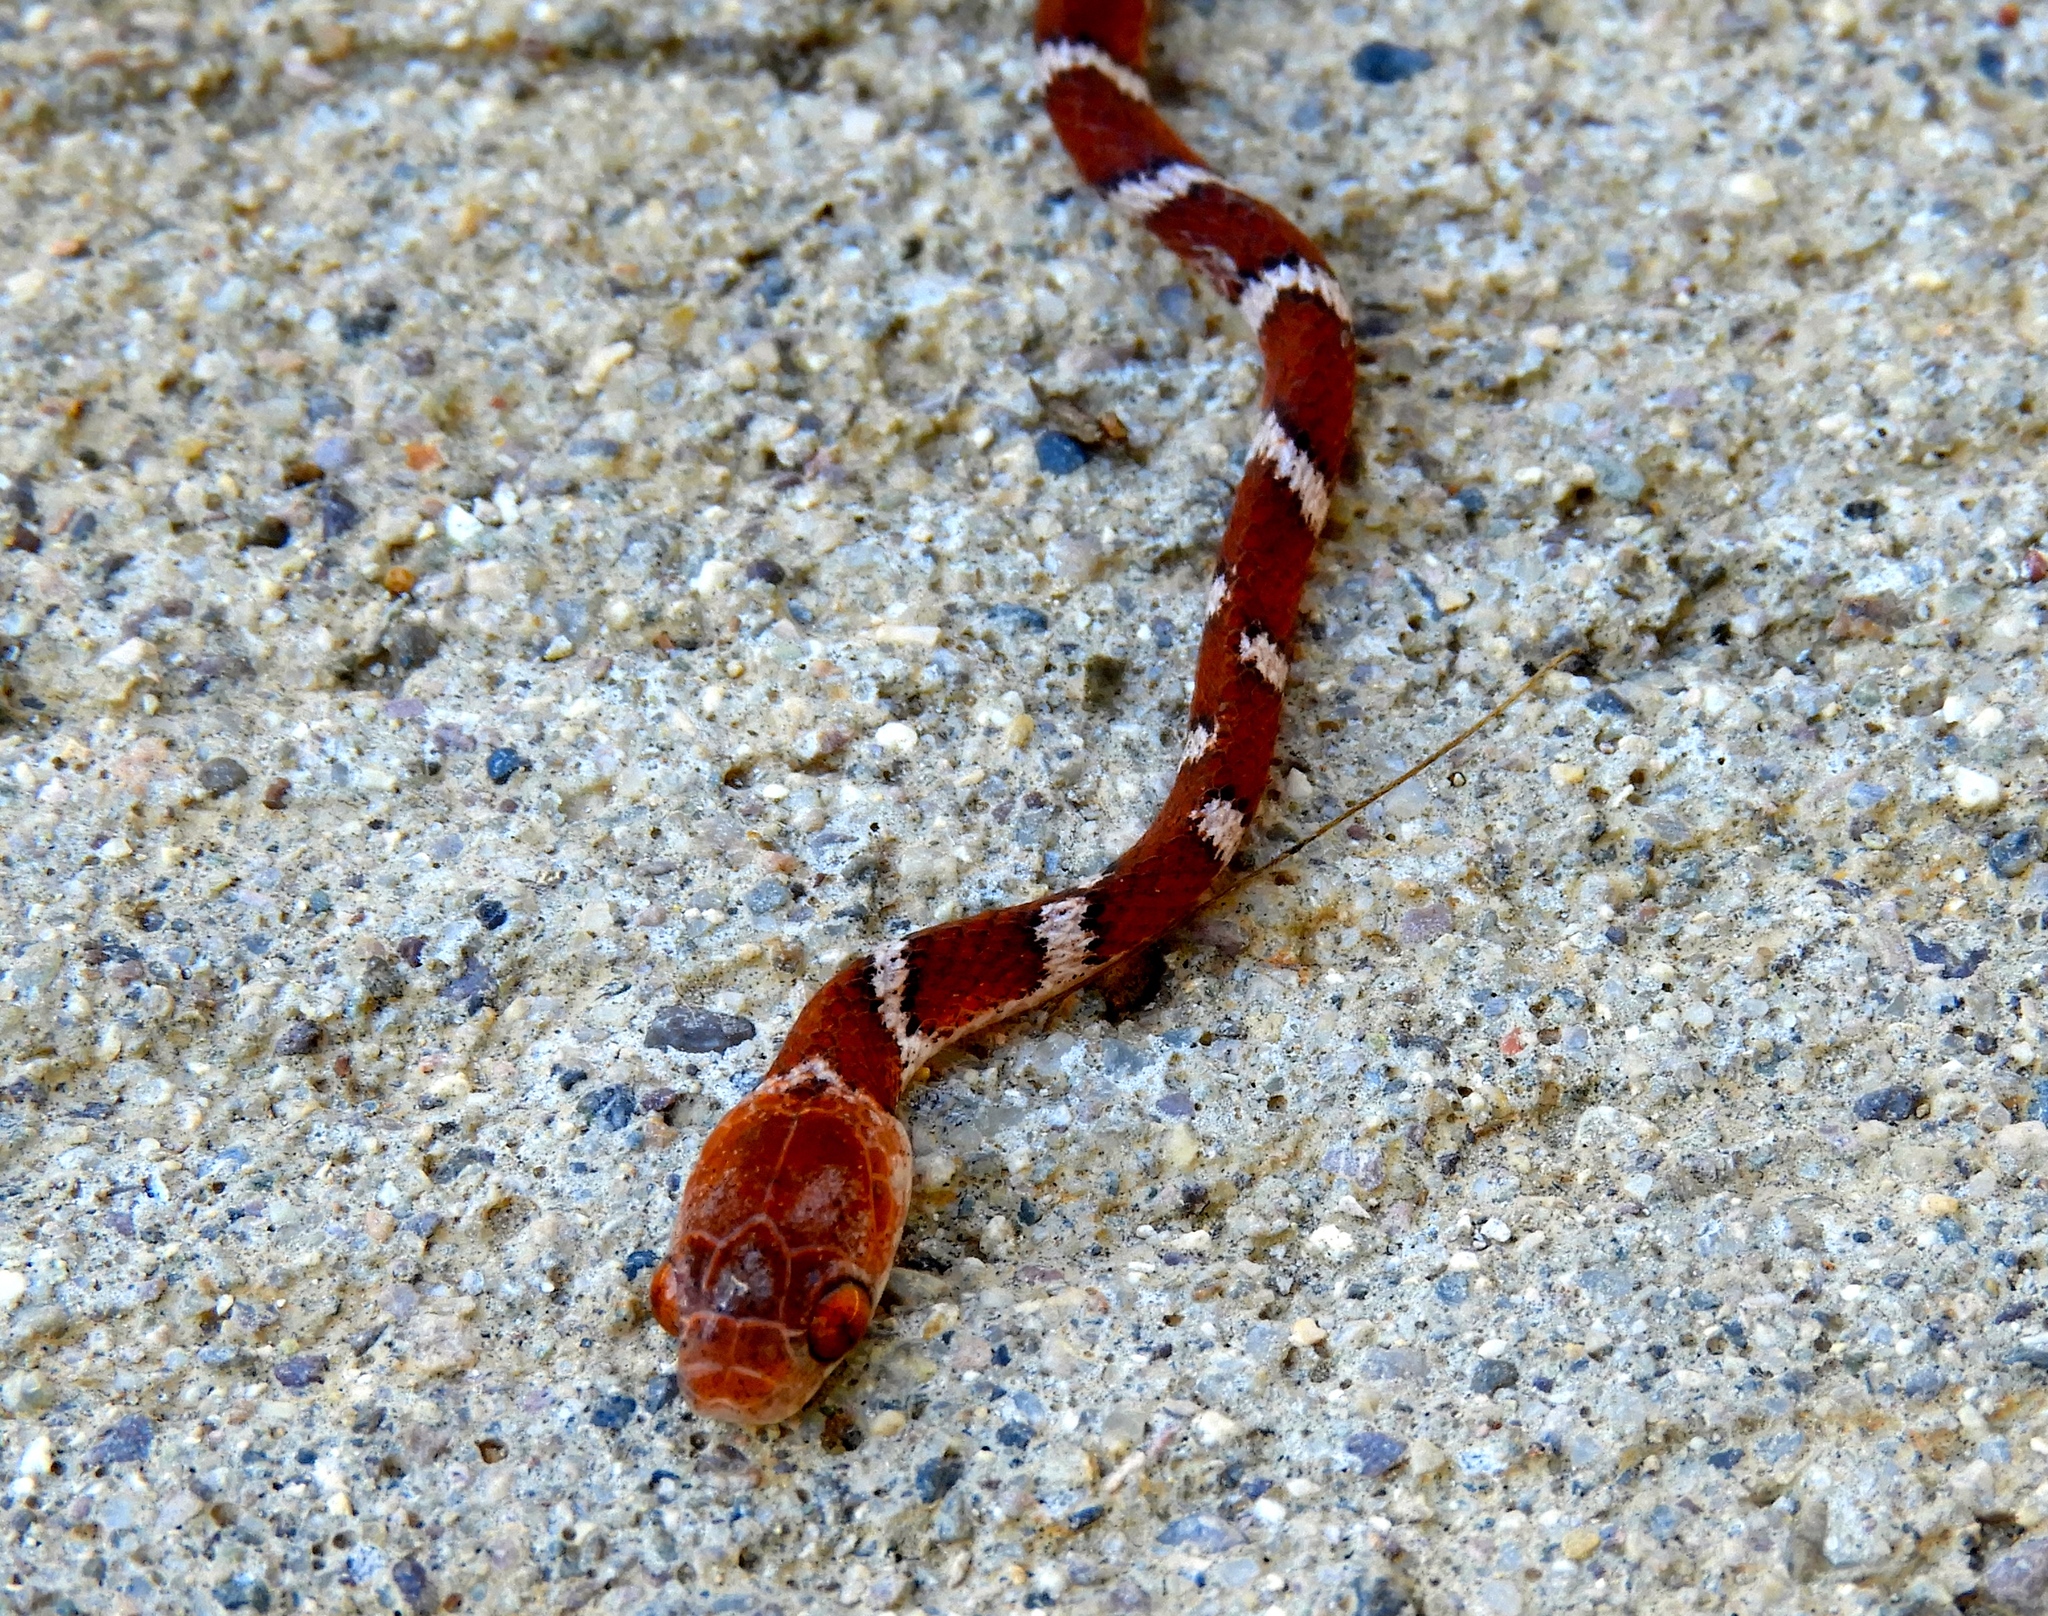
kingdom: Animalia
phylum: Chordata
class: Squamata
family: Colubridae
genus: Imantodes
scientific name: Imantodes gemmistratus
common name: Central american tree snake
